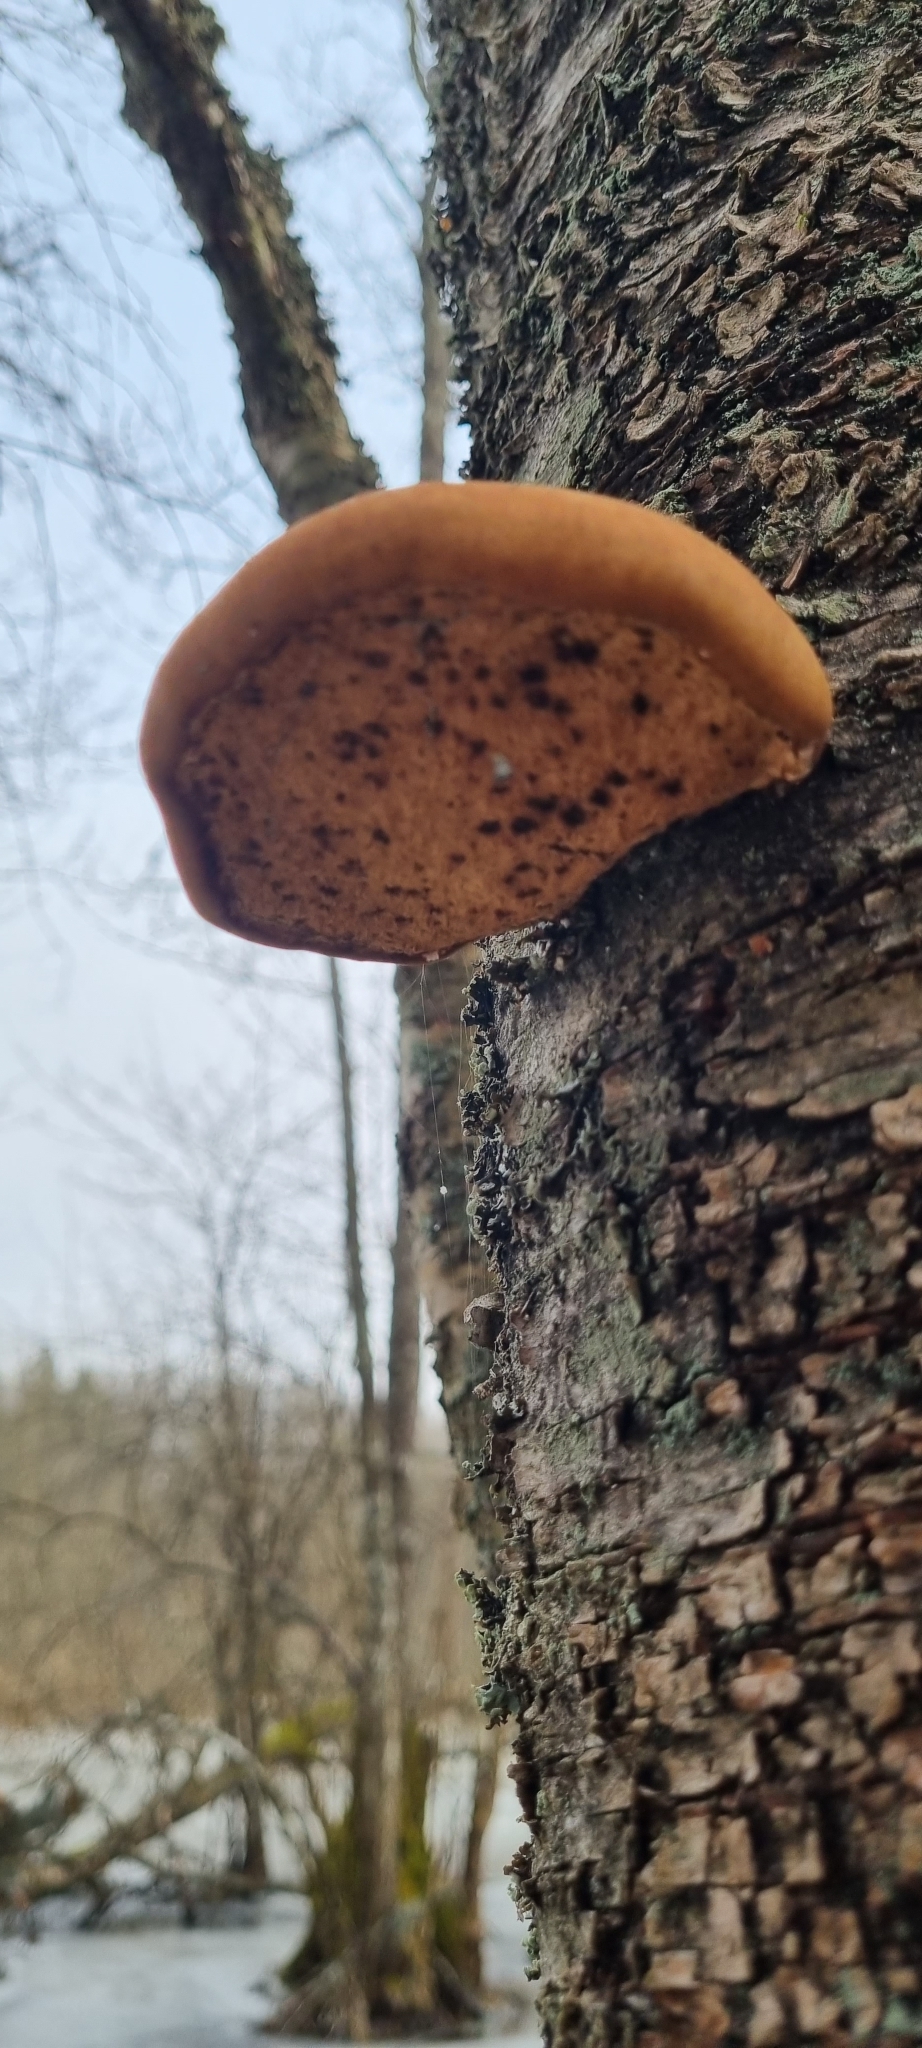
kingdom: Fungi
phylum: Basidiomycota
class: Agaricomycetes
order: Polyporales
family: Fomitopsidaceae
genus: Fomitopsis
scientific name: Fomitopsis betulina
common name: Birch polypore
